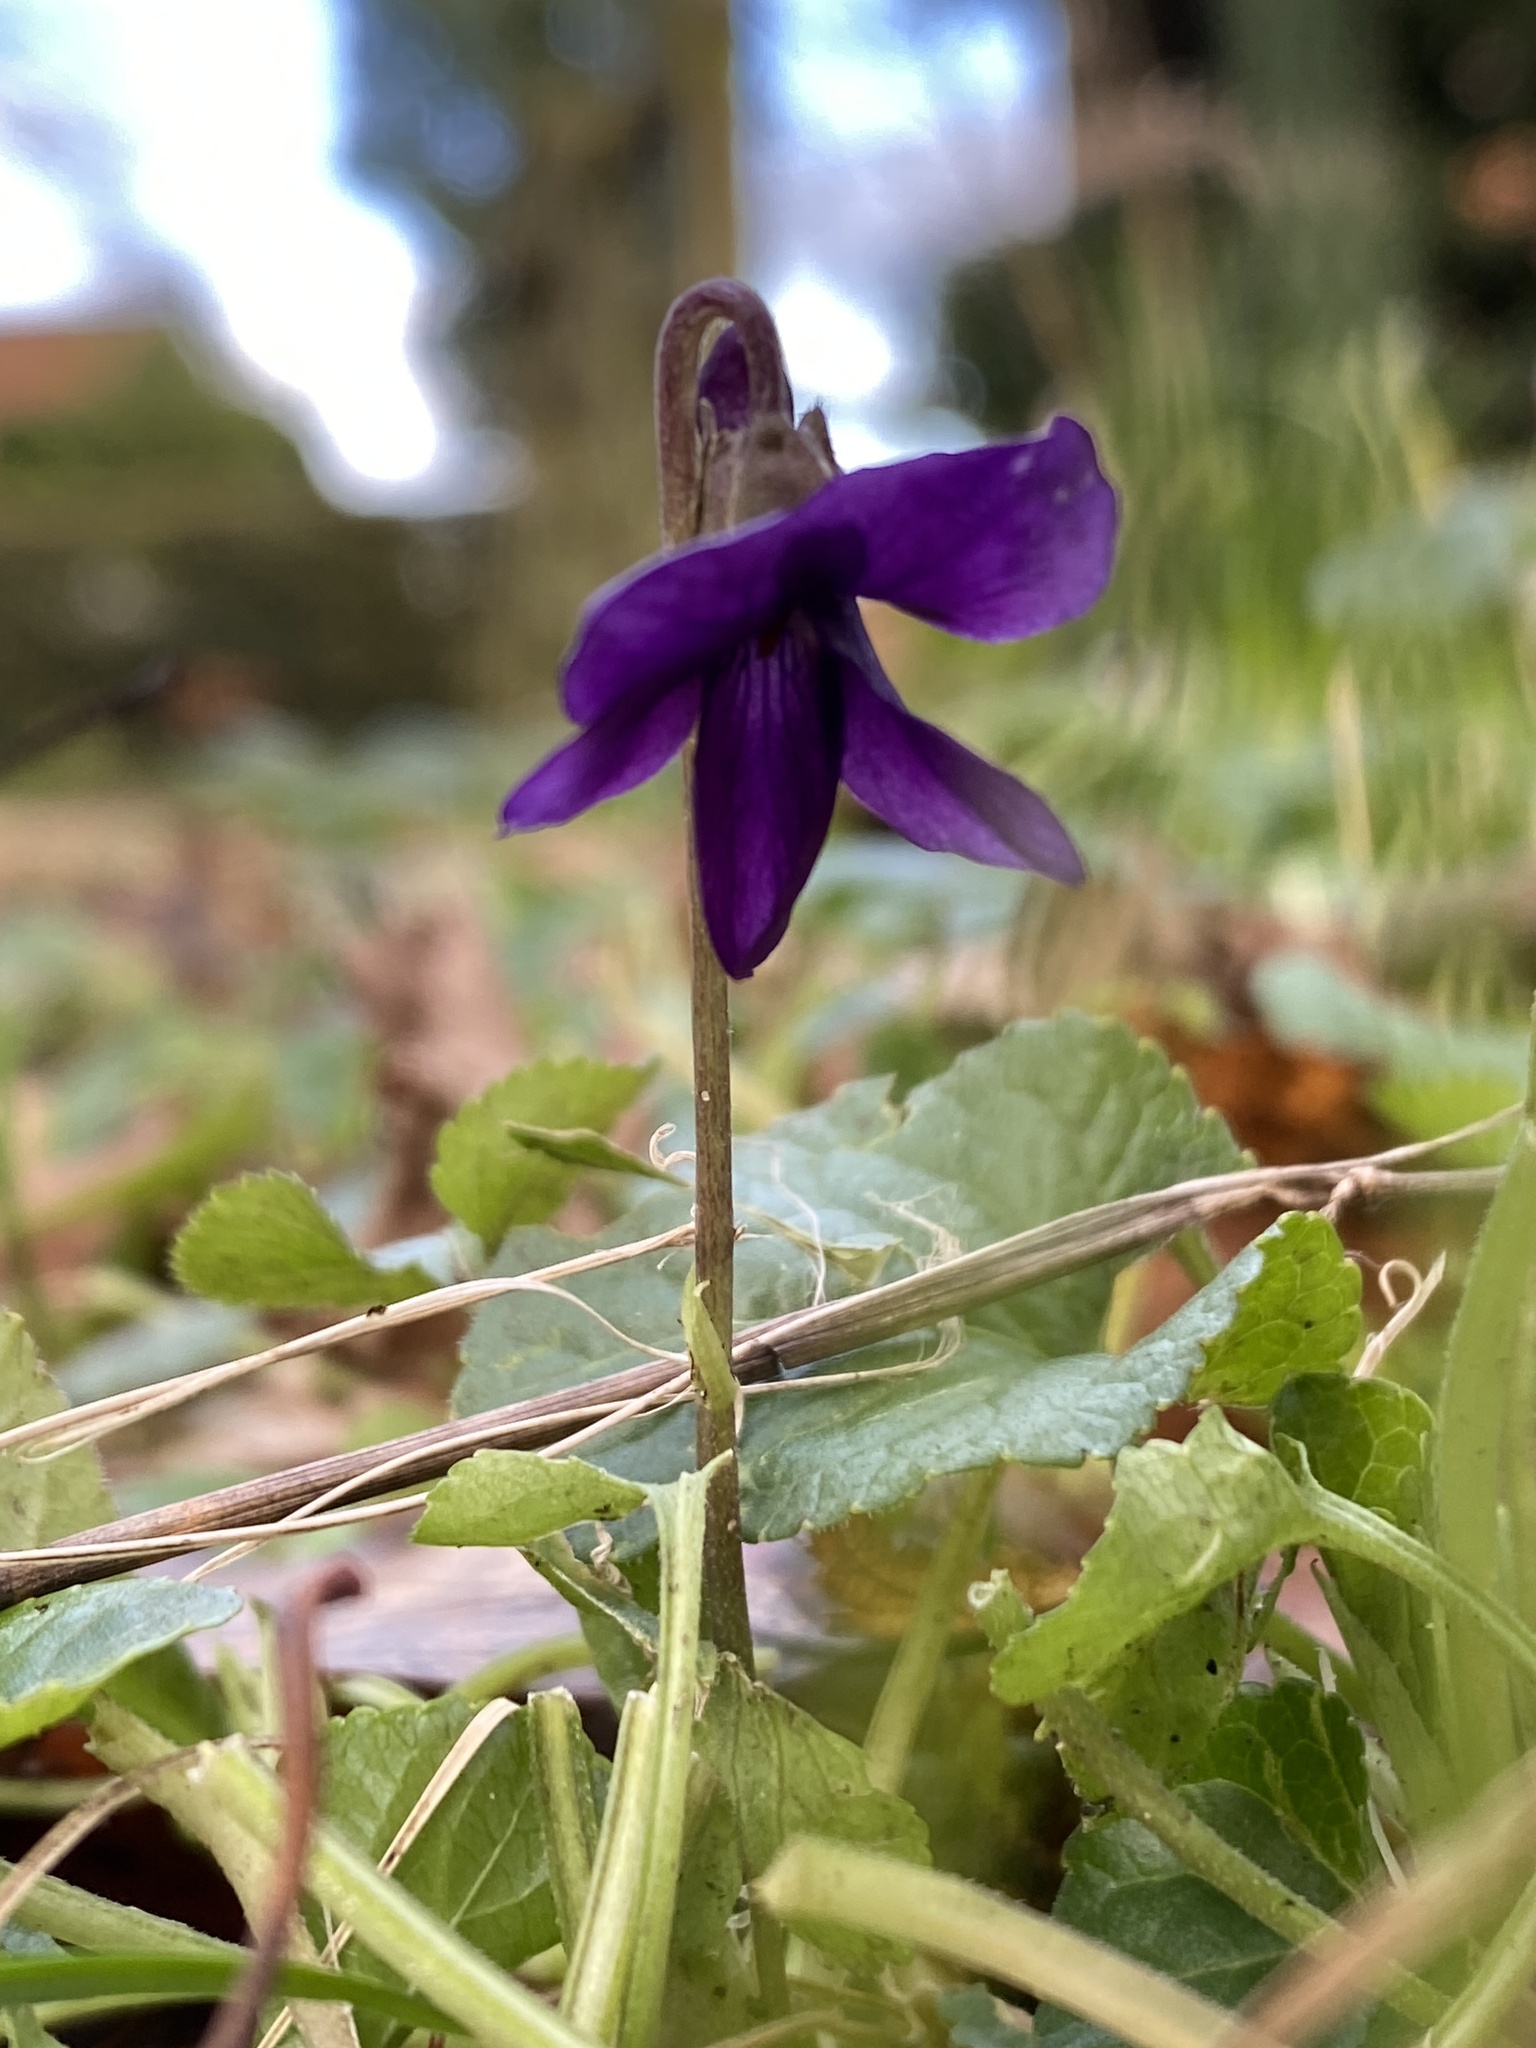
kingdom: Plantae
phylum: Tracheophyta
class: Magnoliopsida
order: Malpighiales
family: Violaceae
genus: Viola
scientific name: Viola odorata
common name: Sweet violet
